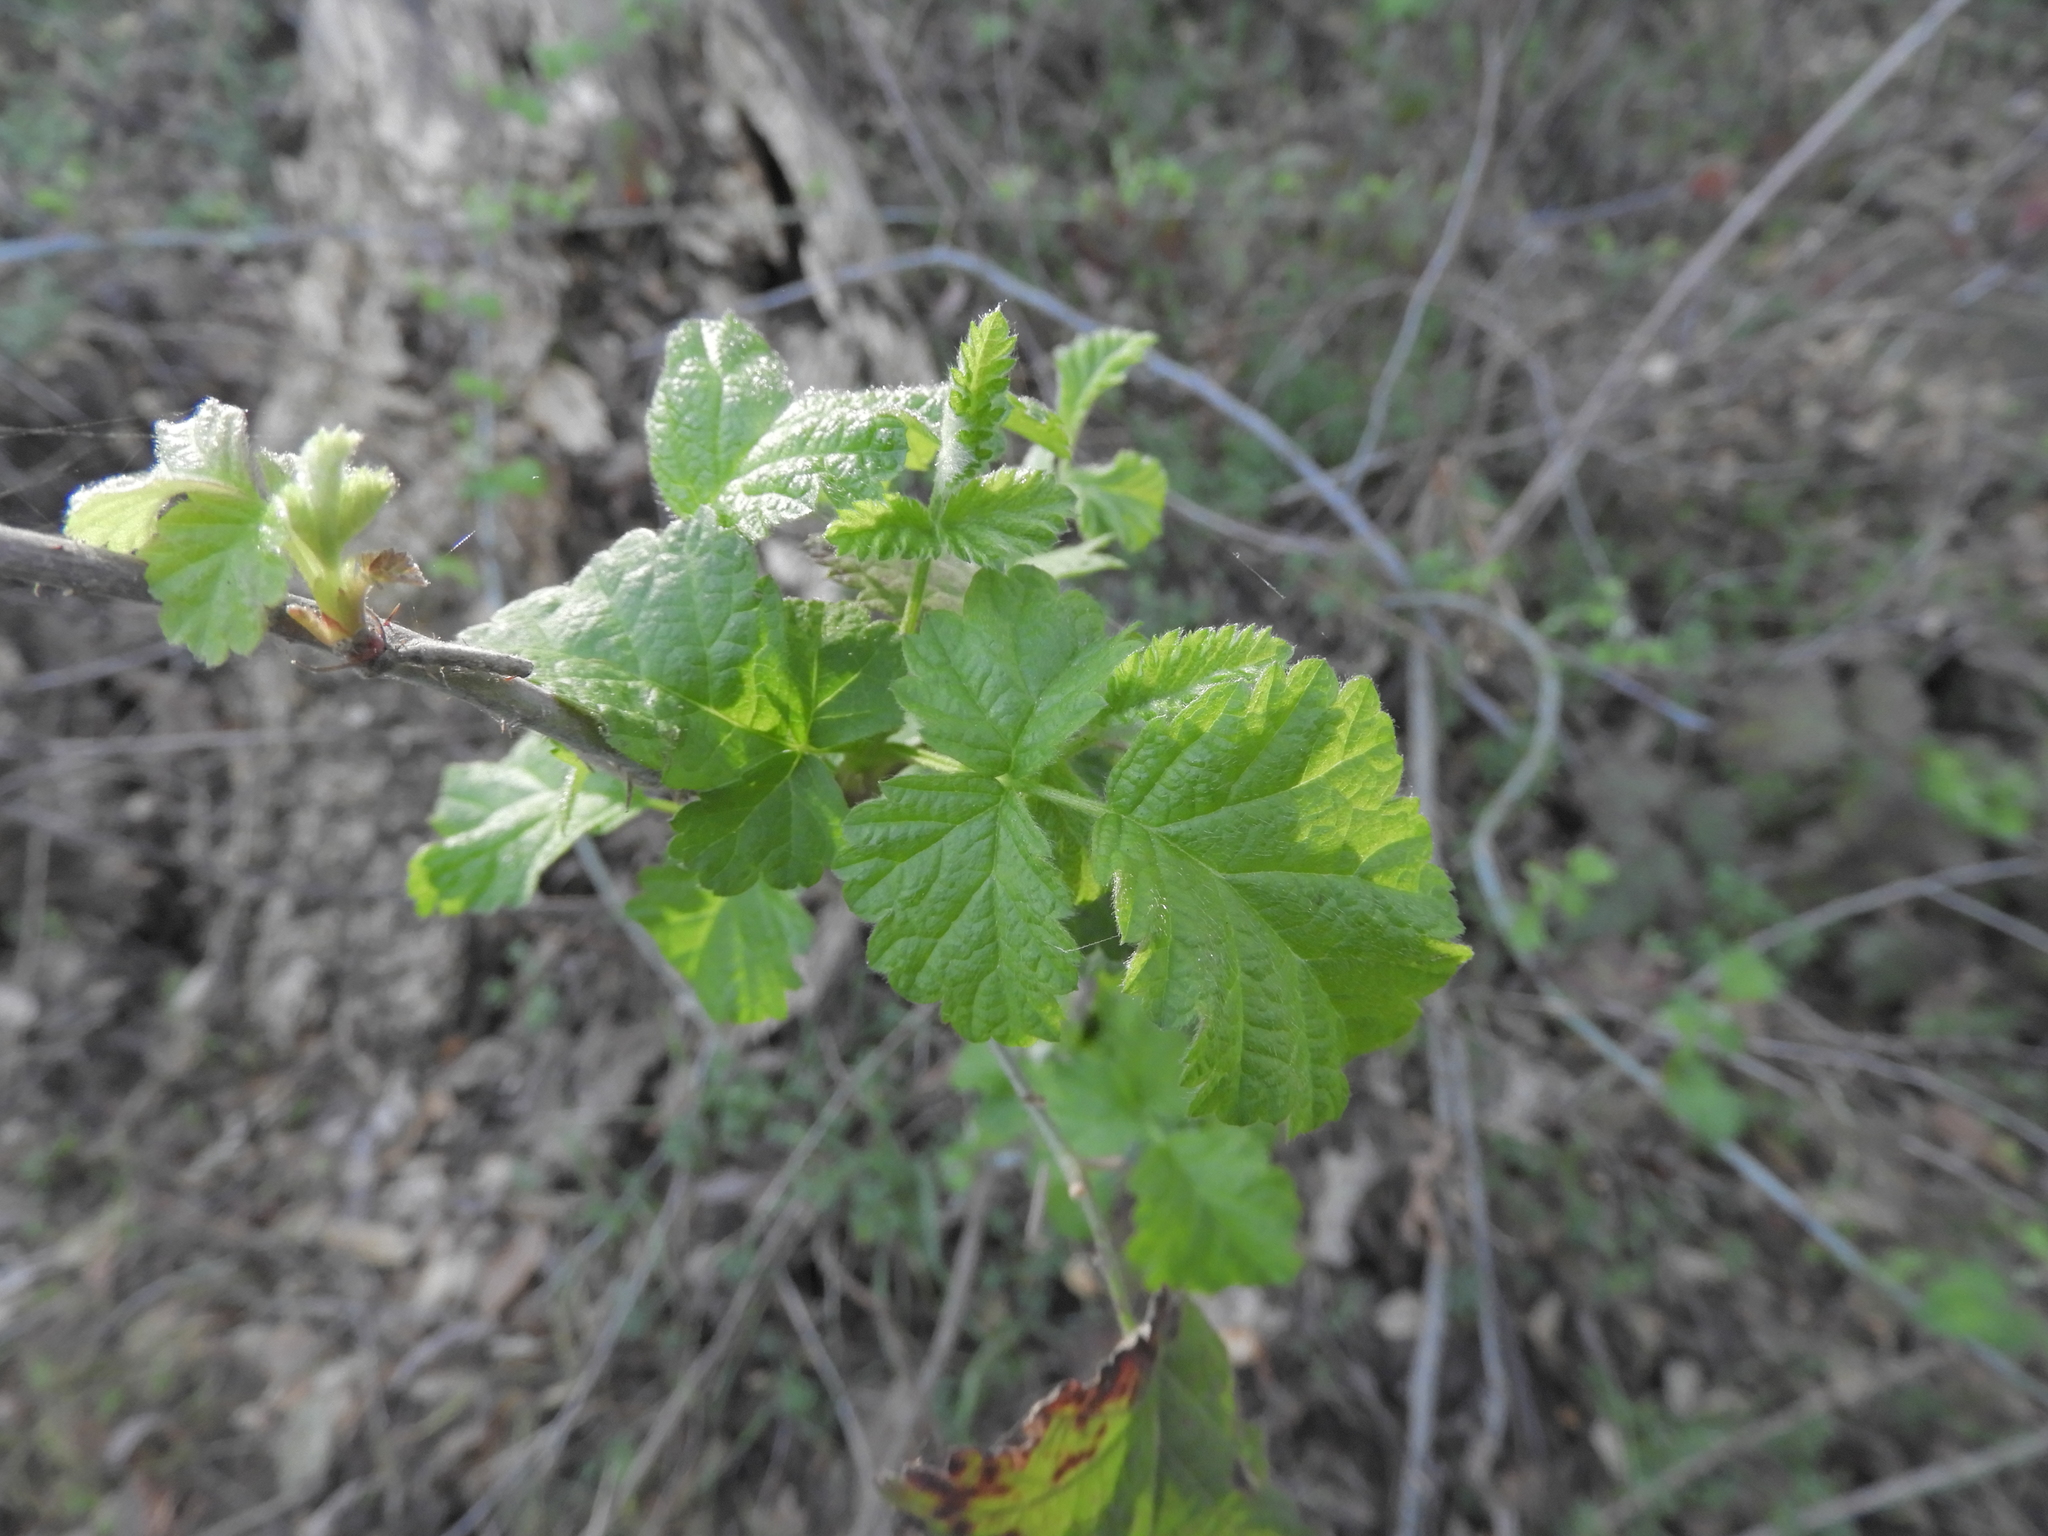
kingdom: Plantae
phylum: Tracheophyta
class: Magnoliopsida
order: Rosales
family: Rosaceae
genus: Rubus
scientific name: Rubus ursinus
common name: Pacific blackberry
